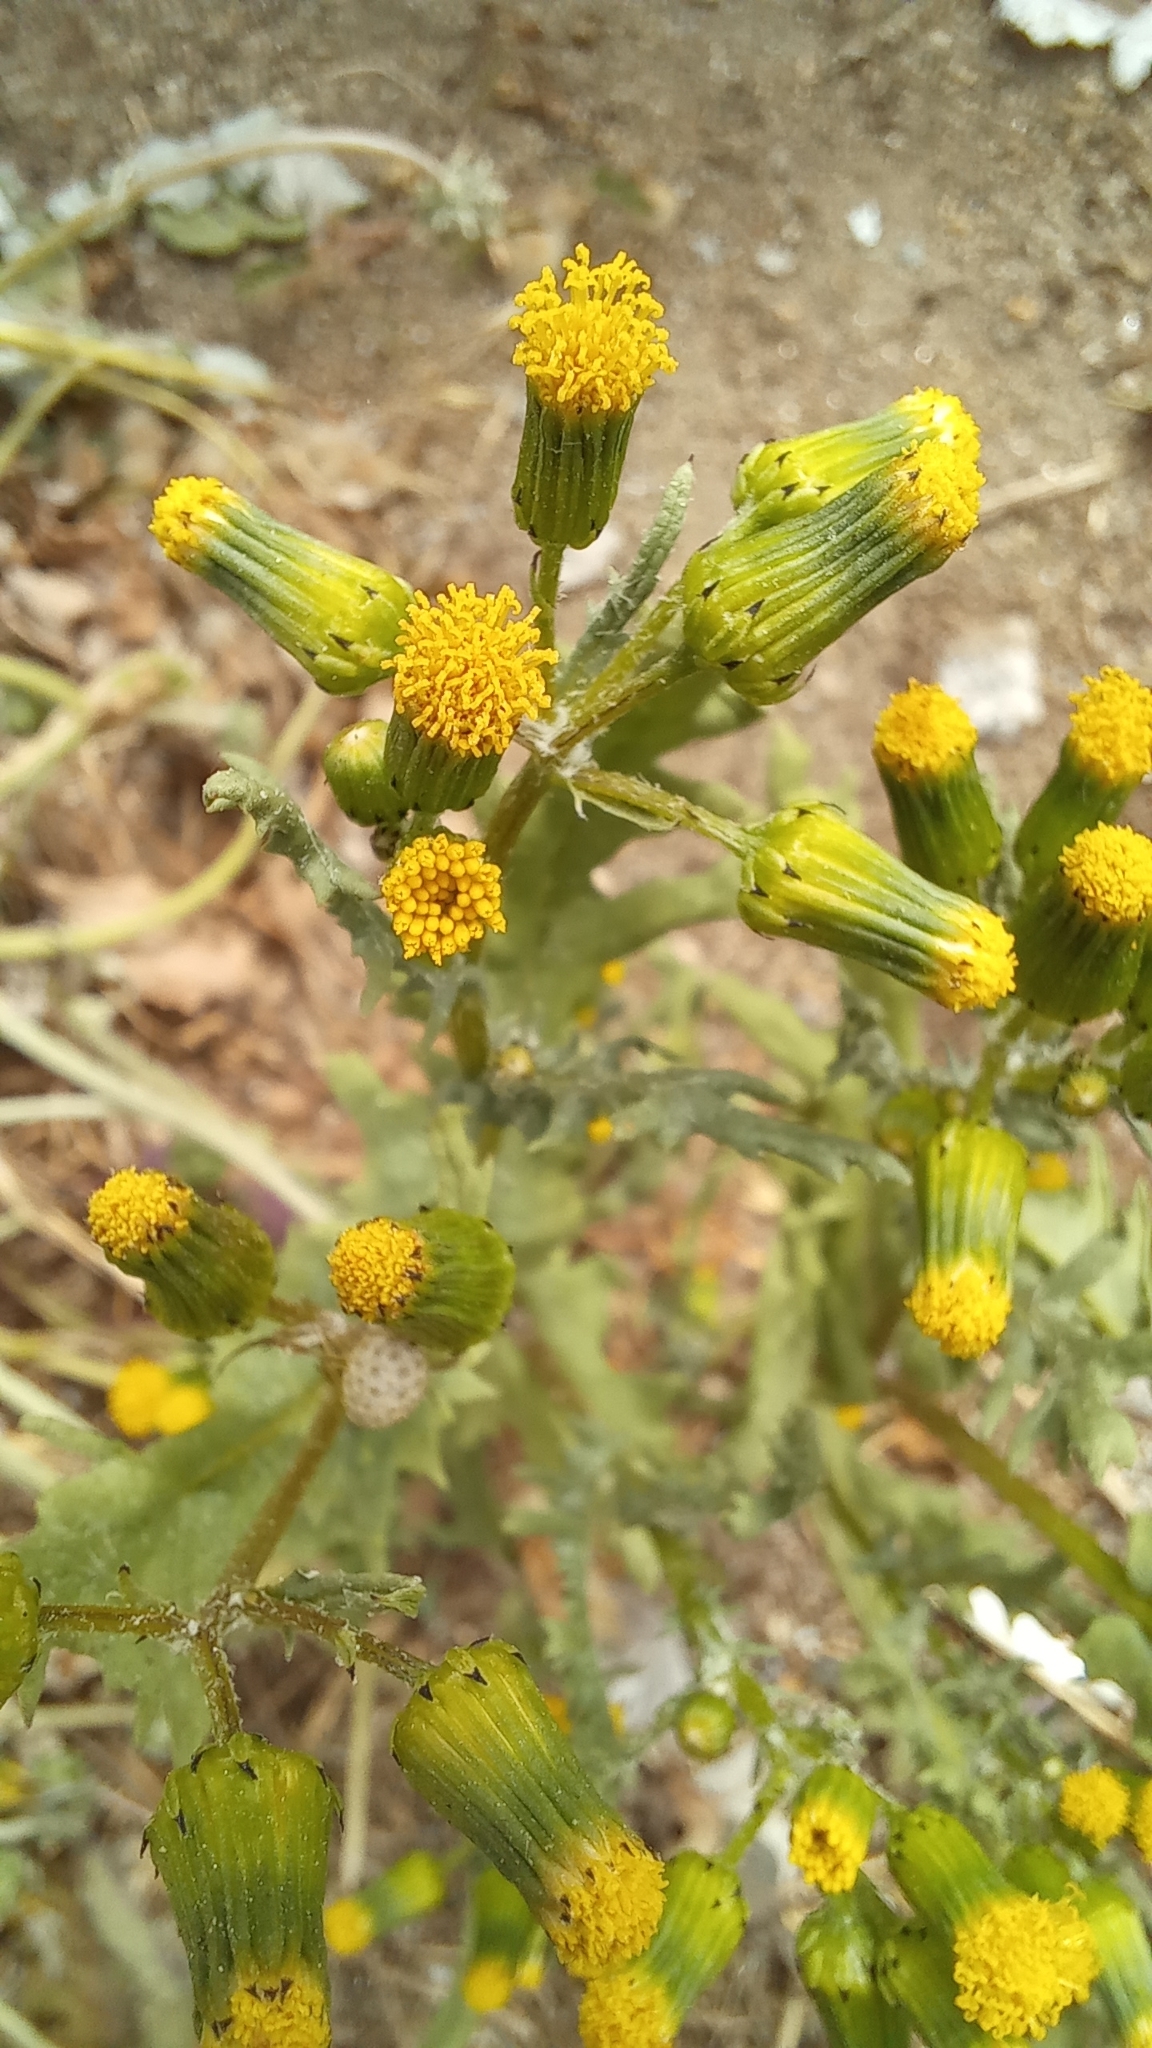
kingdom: Plantae
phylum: Tracheophyta
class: Magnoliopsida
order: Asterales
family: Asteraceae
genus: Senecio
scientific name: Senecio vulgaris
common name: Old-man-in-the-spring
